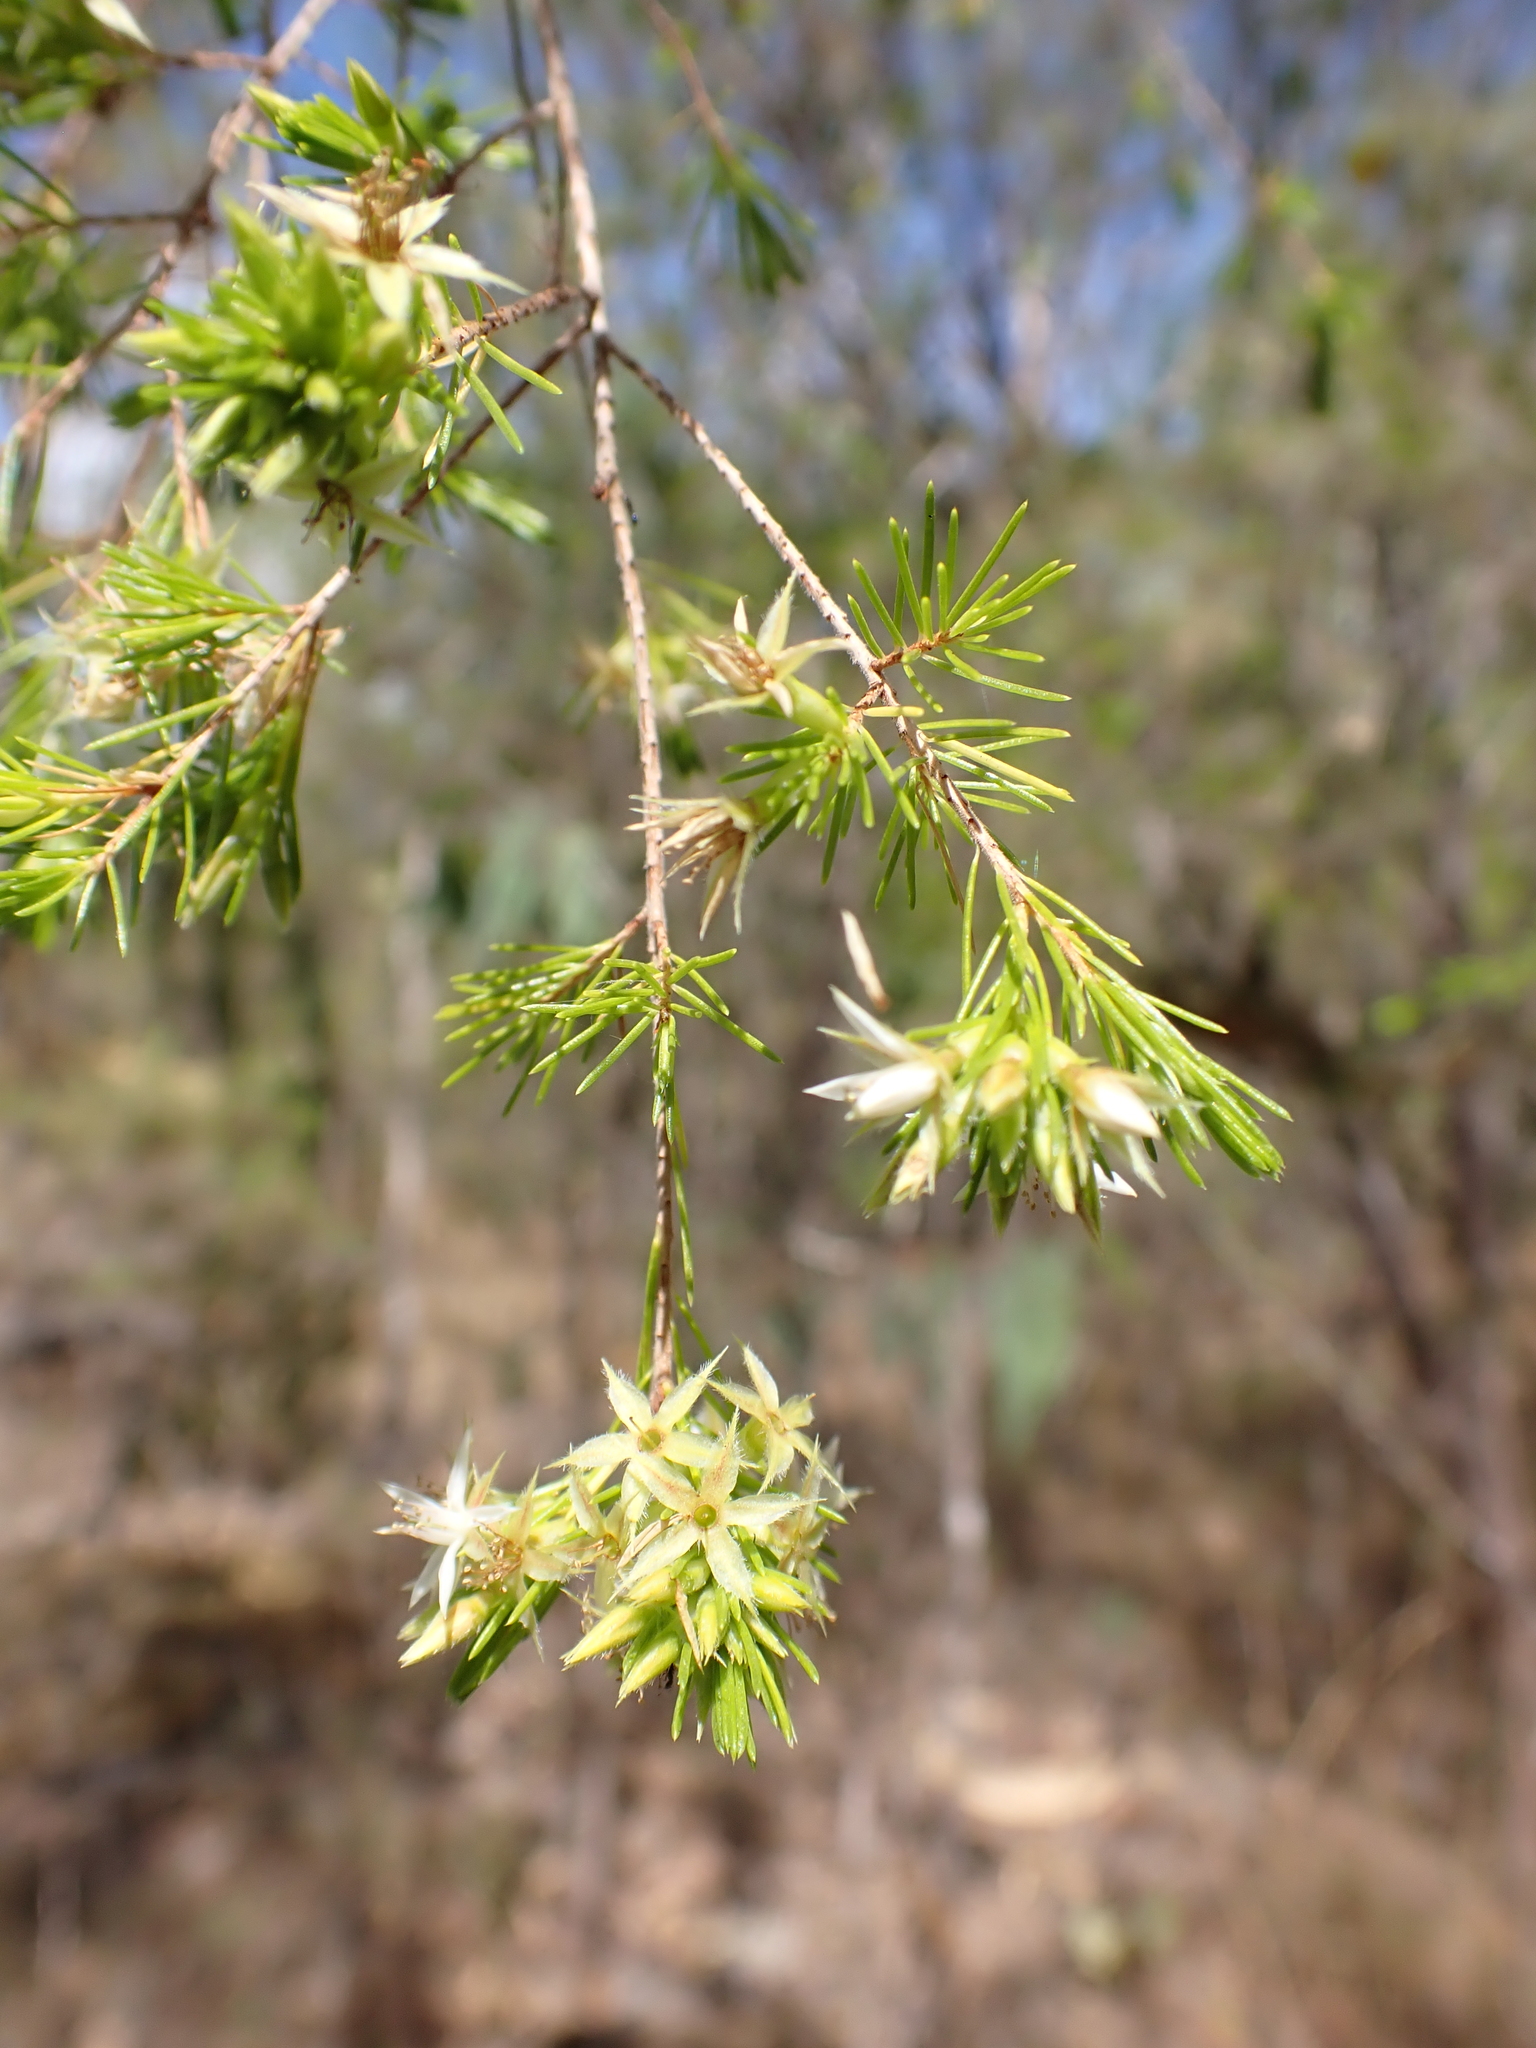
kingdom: Plantae
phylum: Tracheophyta
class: Magnoliopsida
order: Myrtales
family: Myrtaceae
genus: Calytrix
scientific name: Calytrix brownii
